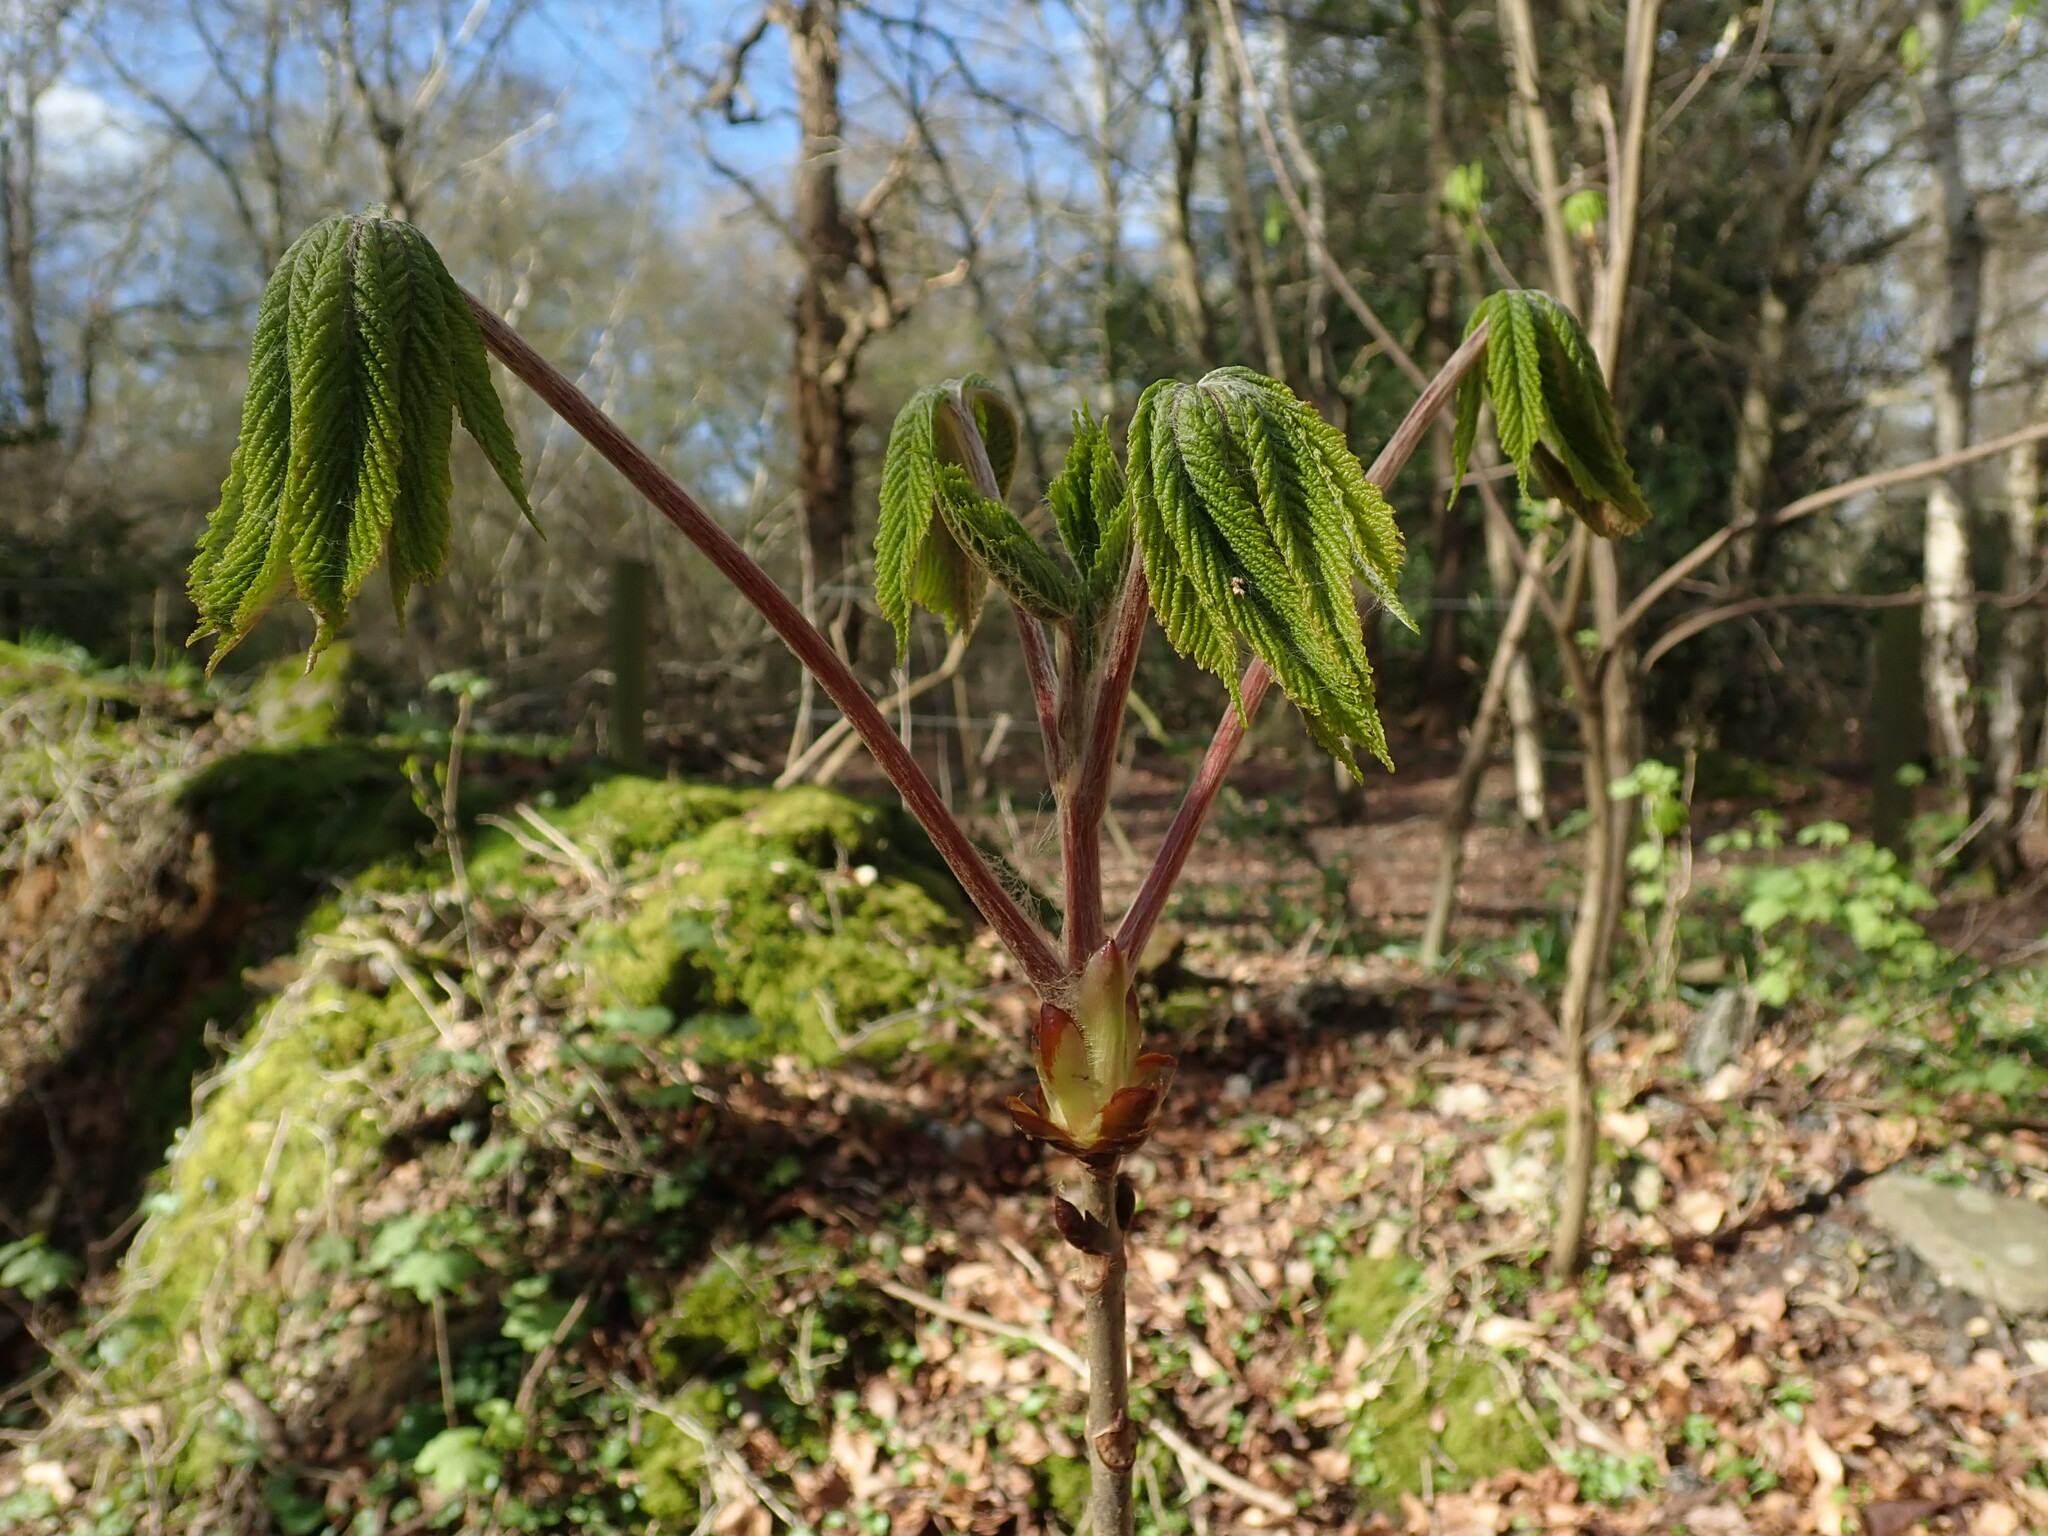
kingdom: Plantae
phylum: Tracheophyta
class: Magnoliopsida
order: Sapindales
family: Sapindaceae
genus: Aesculus
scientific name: Aesculus hippocastanum
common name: Horse-chestnut
